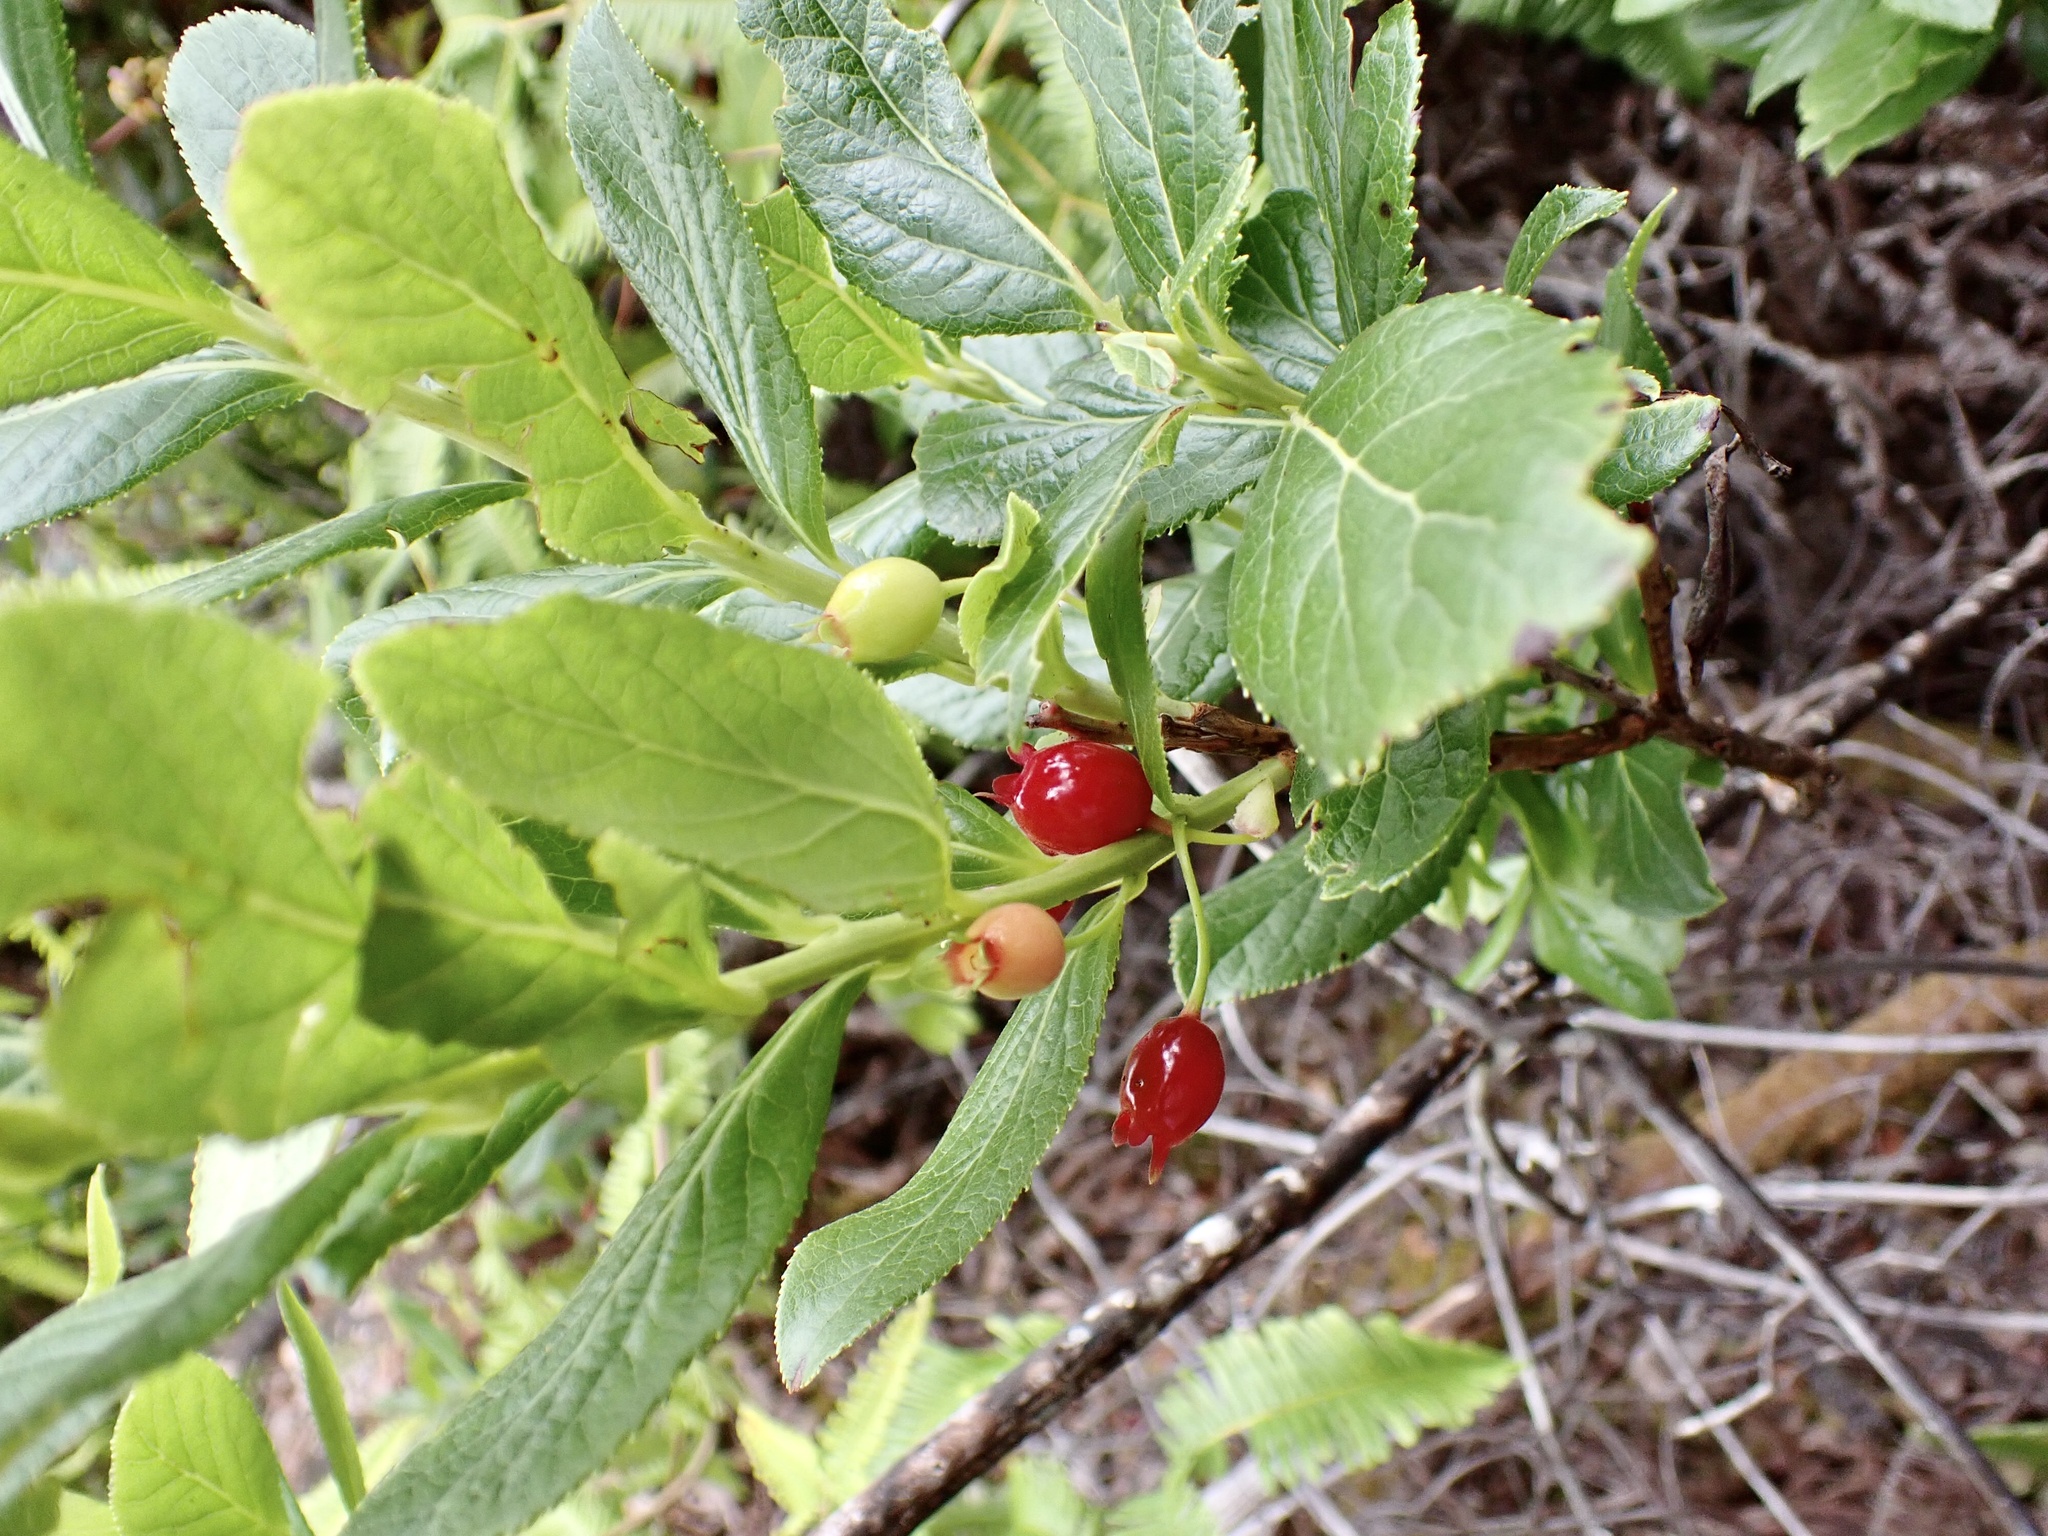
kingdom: Plantae
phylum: Tracheophyta
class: Magnoliopsida
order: Ericales
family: Ericaceae
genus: Vaccinium
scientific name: Vaccinium calycinum
